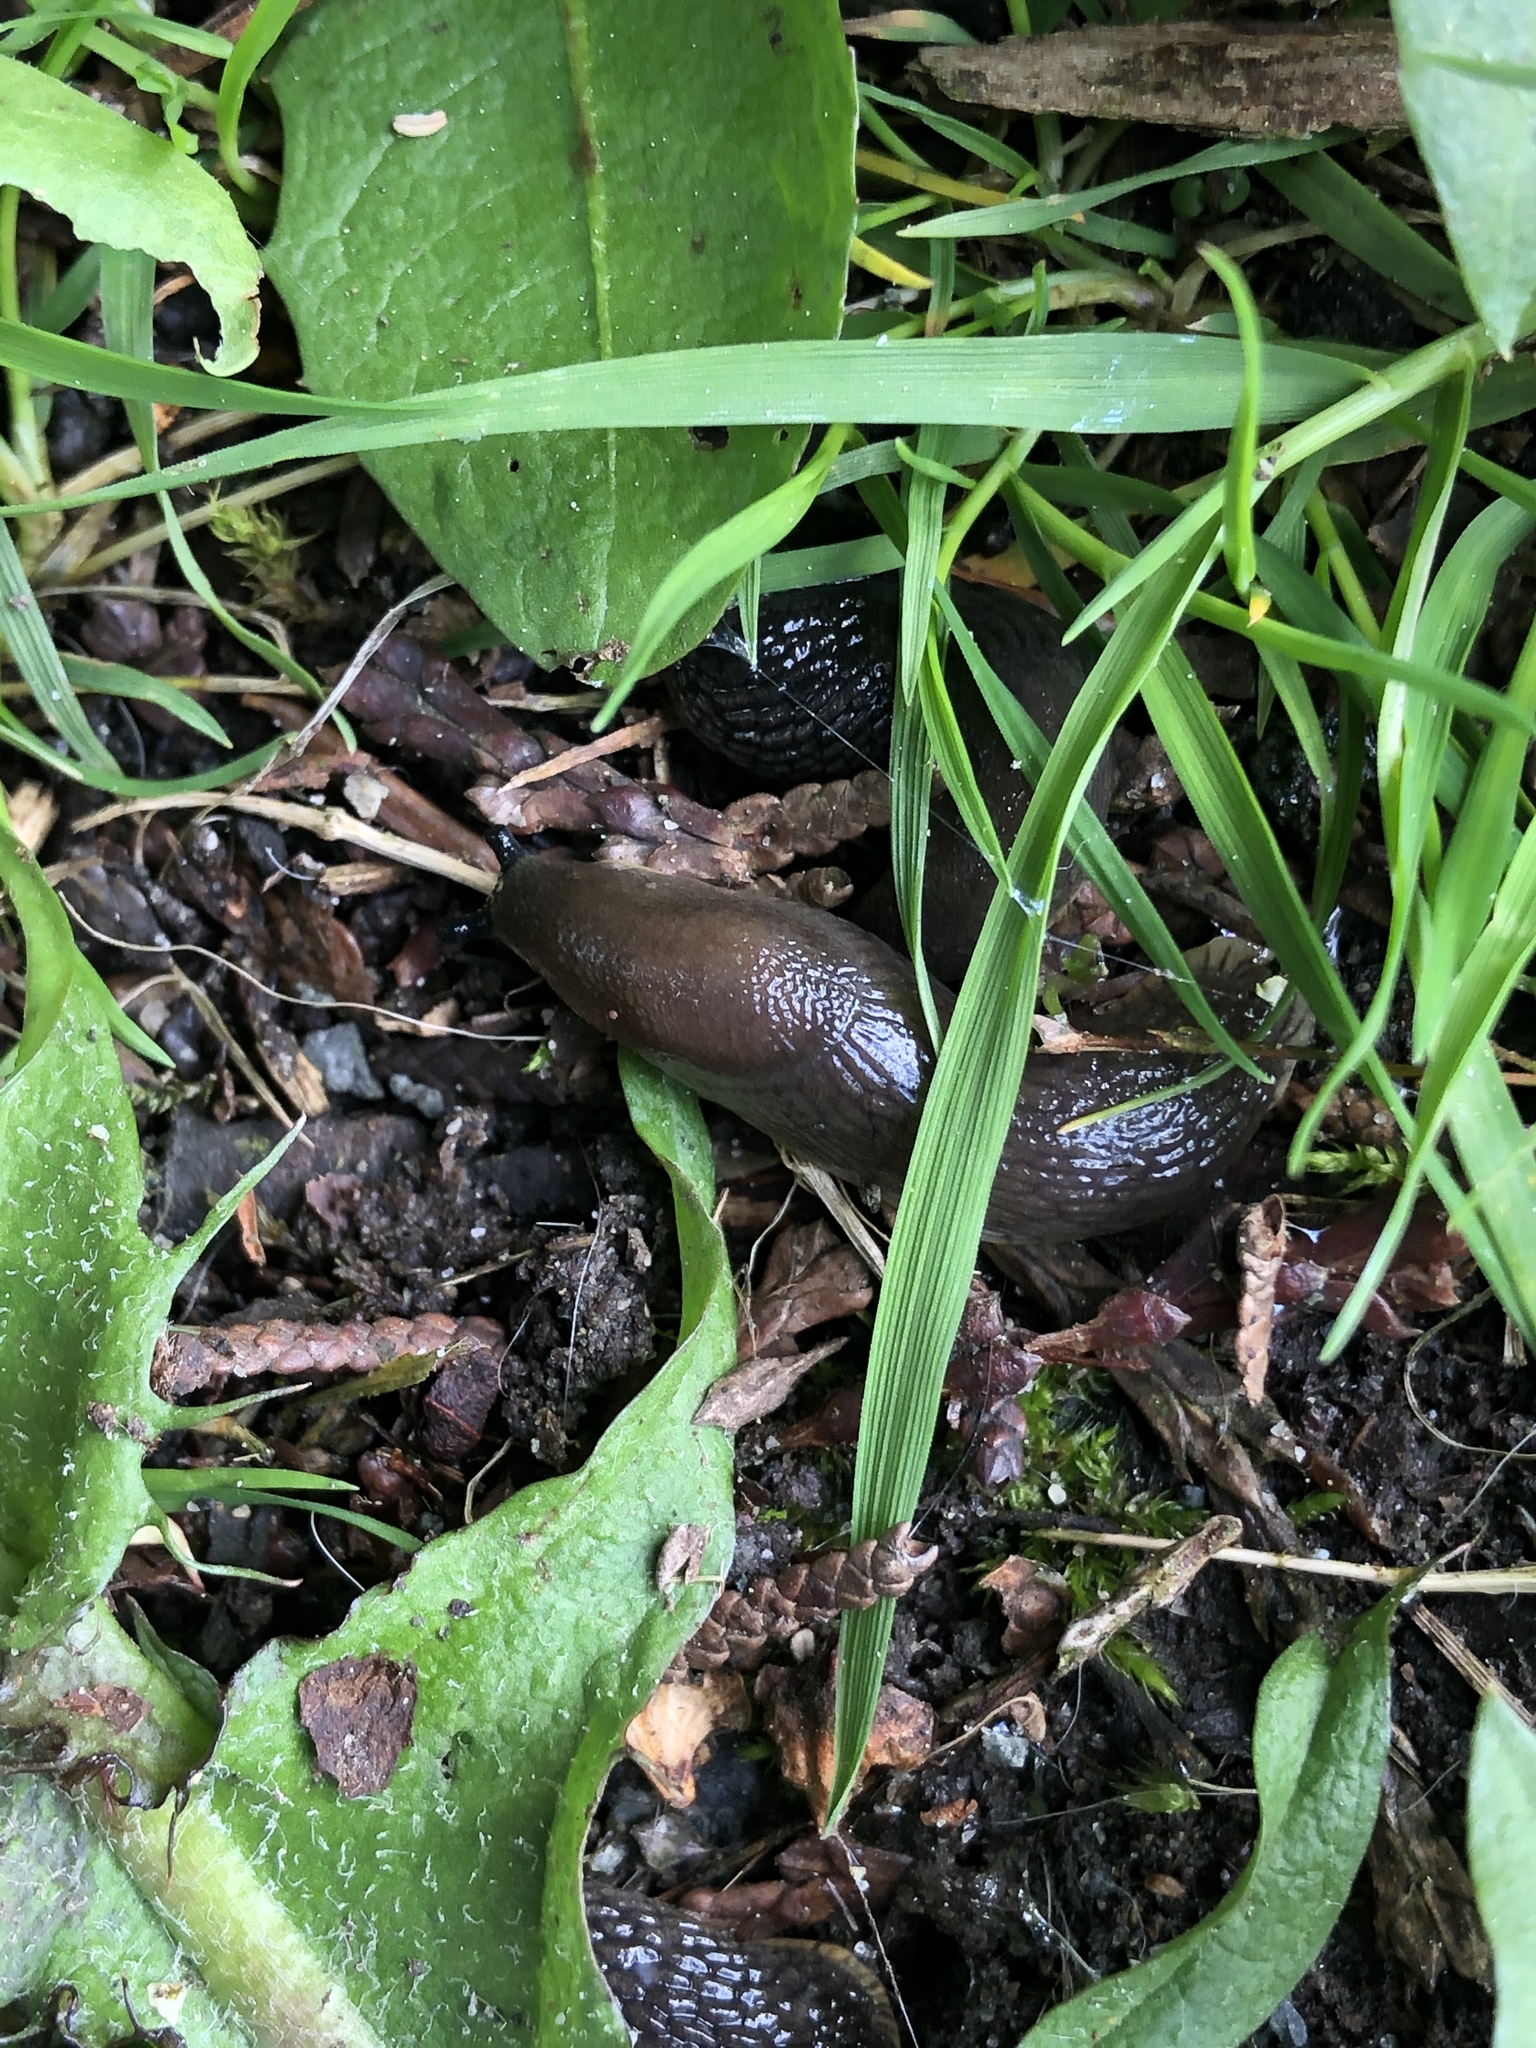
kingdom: Animalia
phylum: Mollusca
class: Gastropoda
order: Stylommatophora
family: Arionidae
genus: Arion
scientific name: Arion rufus
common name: Chocolate arion
